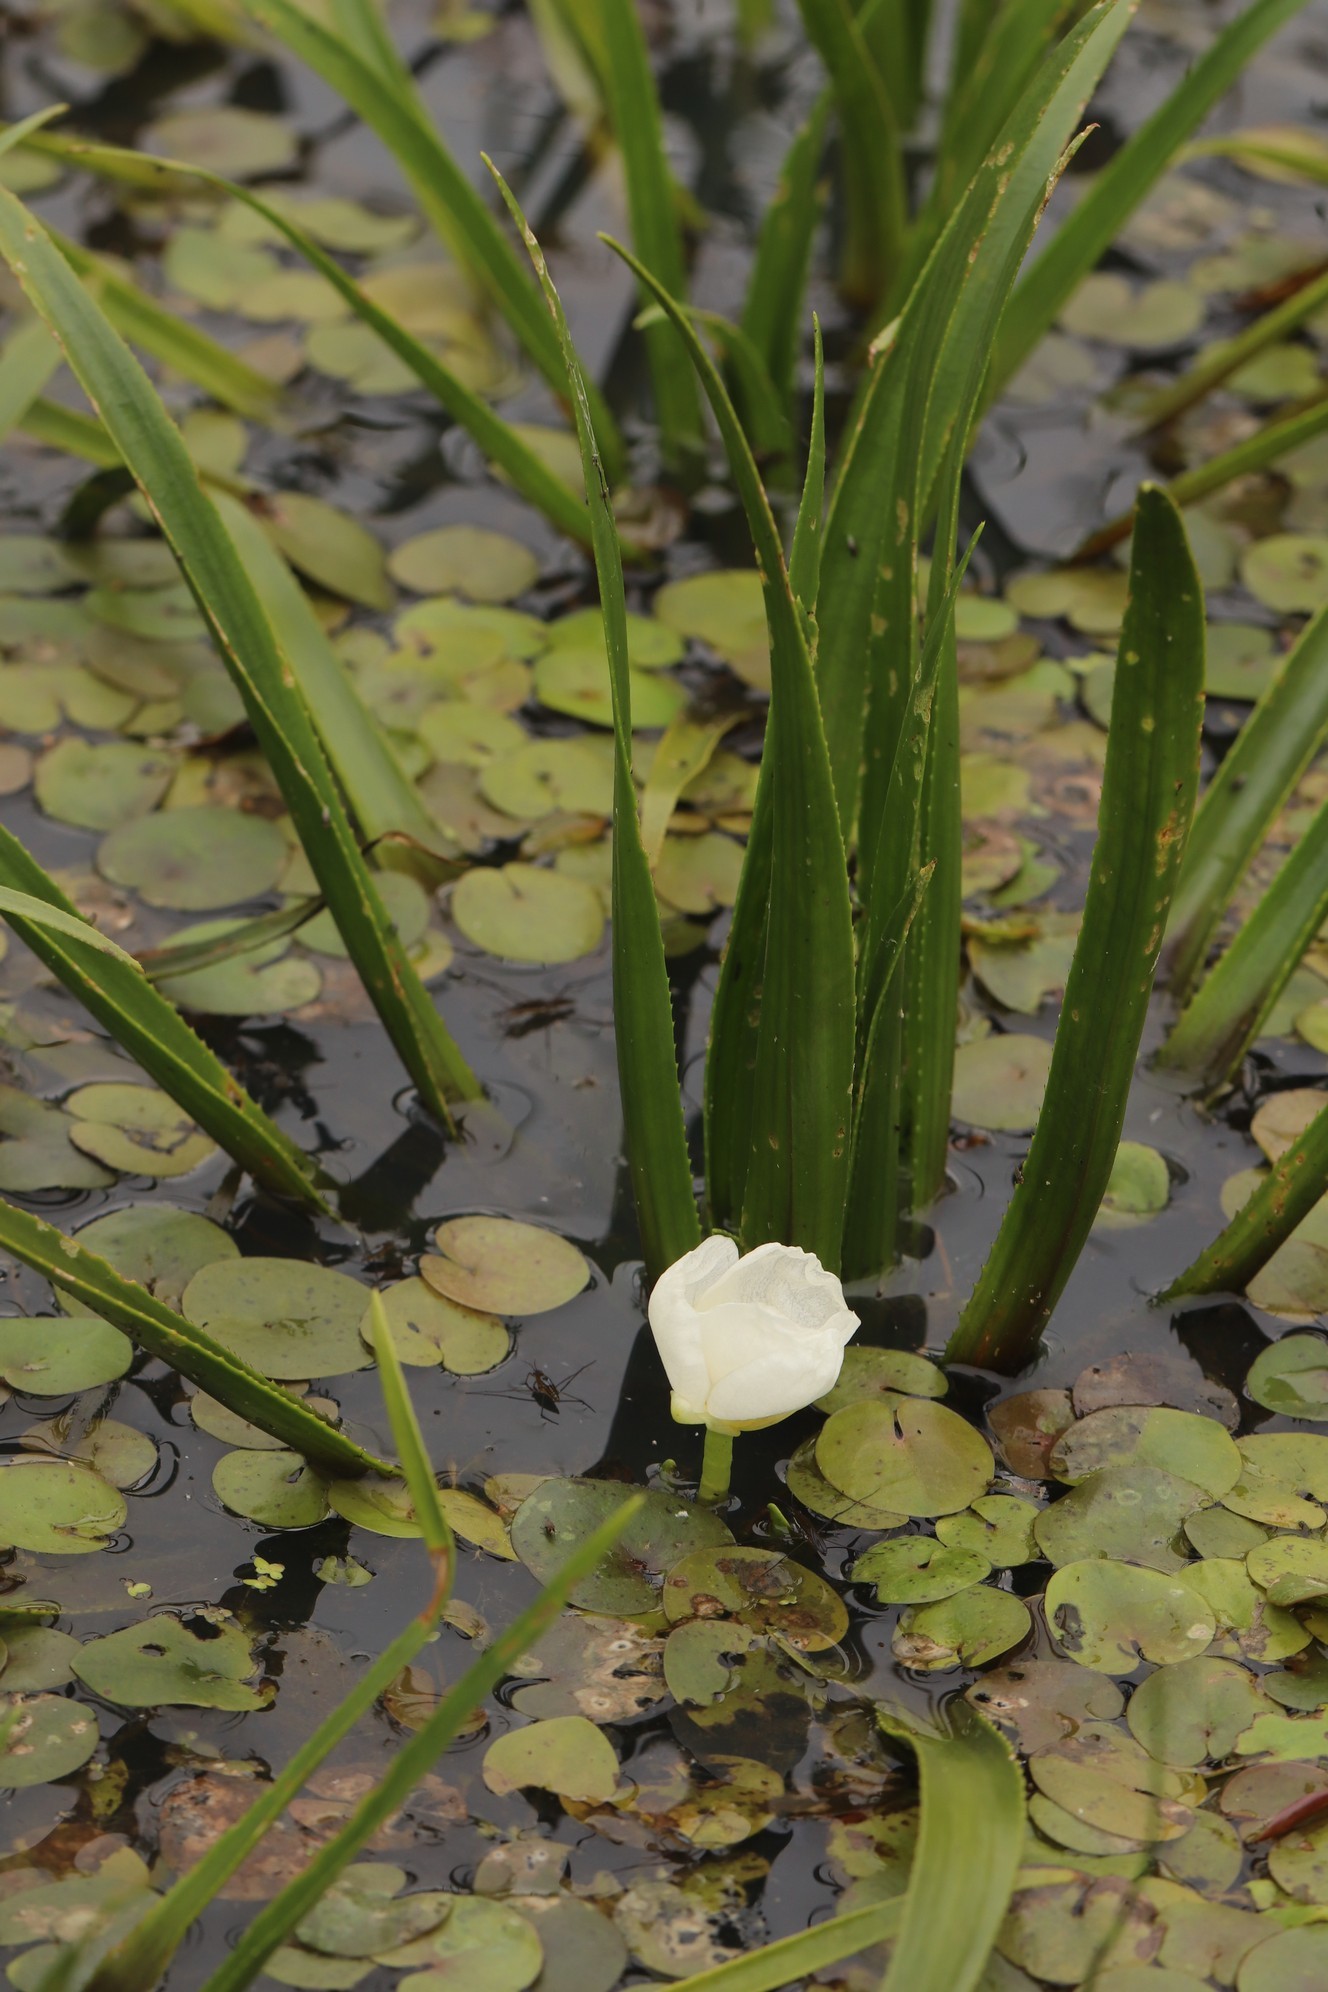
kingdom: Plantae
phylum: Tracheophyta
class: Liliopsida
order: Alismatales
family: Hydrocharitaceae
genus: Stratiotes
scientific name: Stratiotes aloides
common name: Water-soldier
